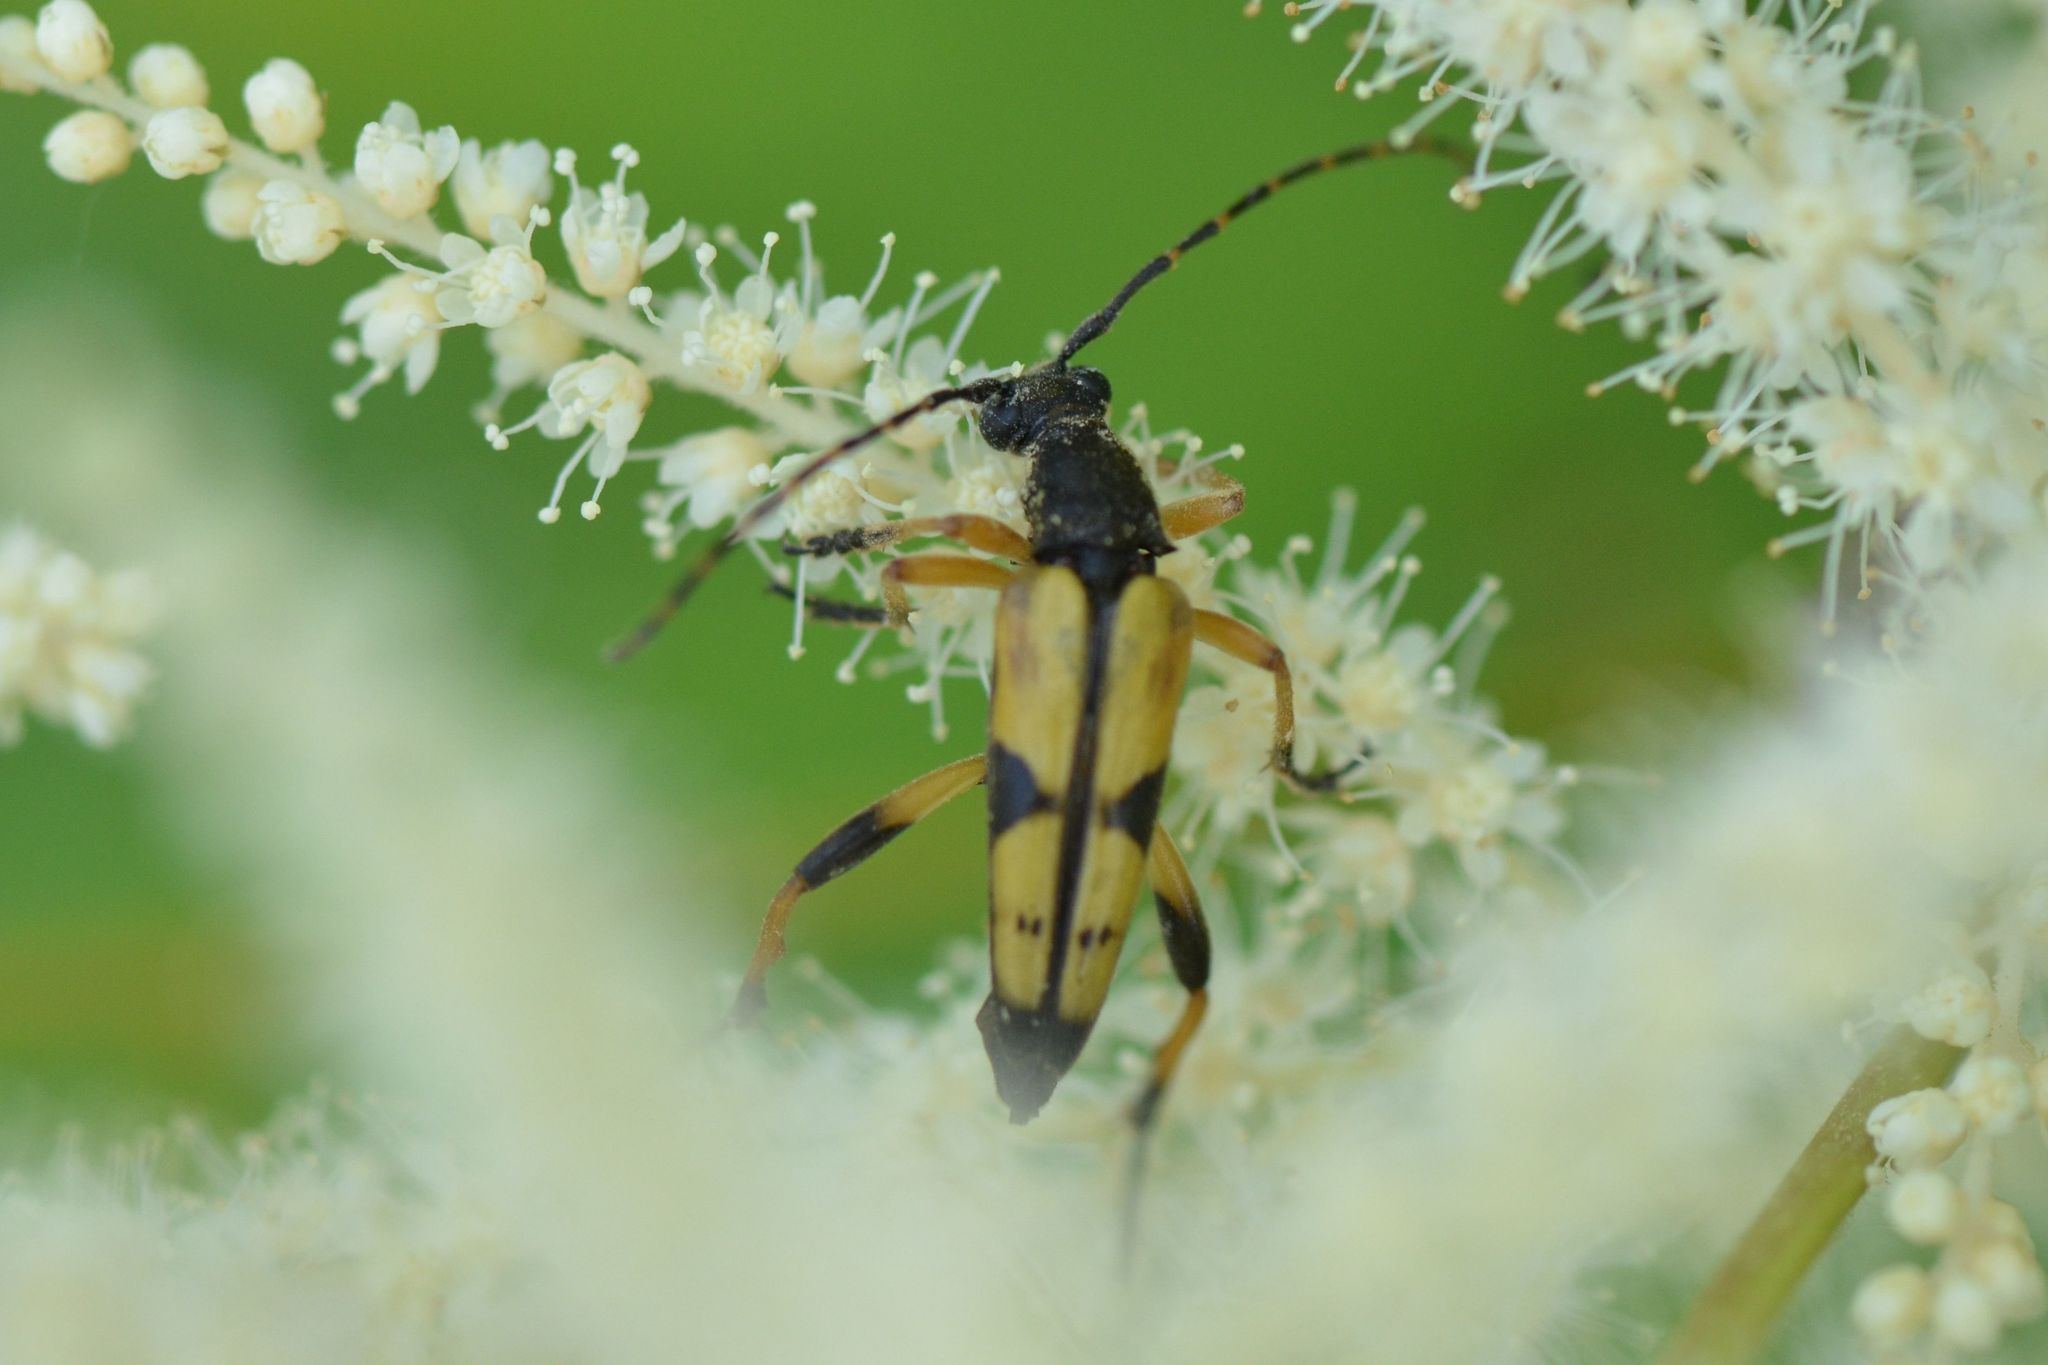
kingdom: Animalia
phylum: Arthropoda
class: Insecta
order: Coleoptera
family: Cerambycidae
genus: Rutpela
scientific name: Rutpela maculata
